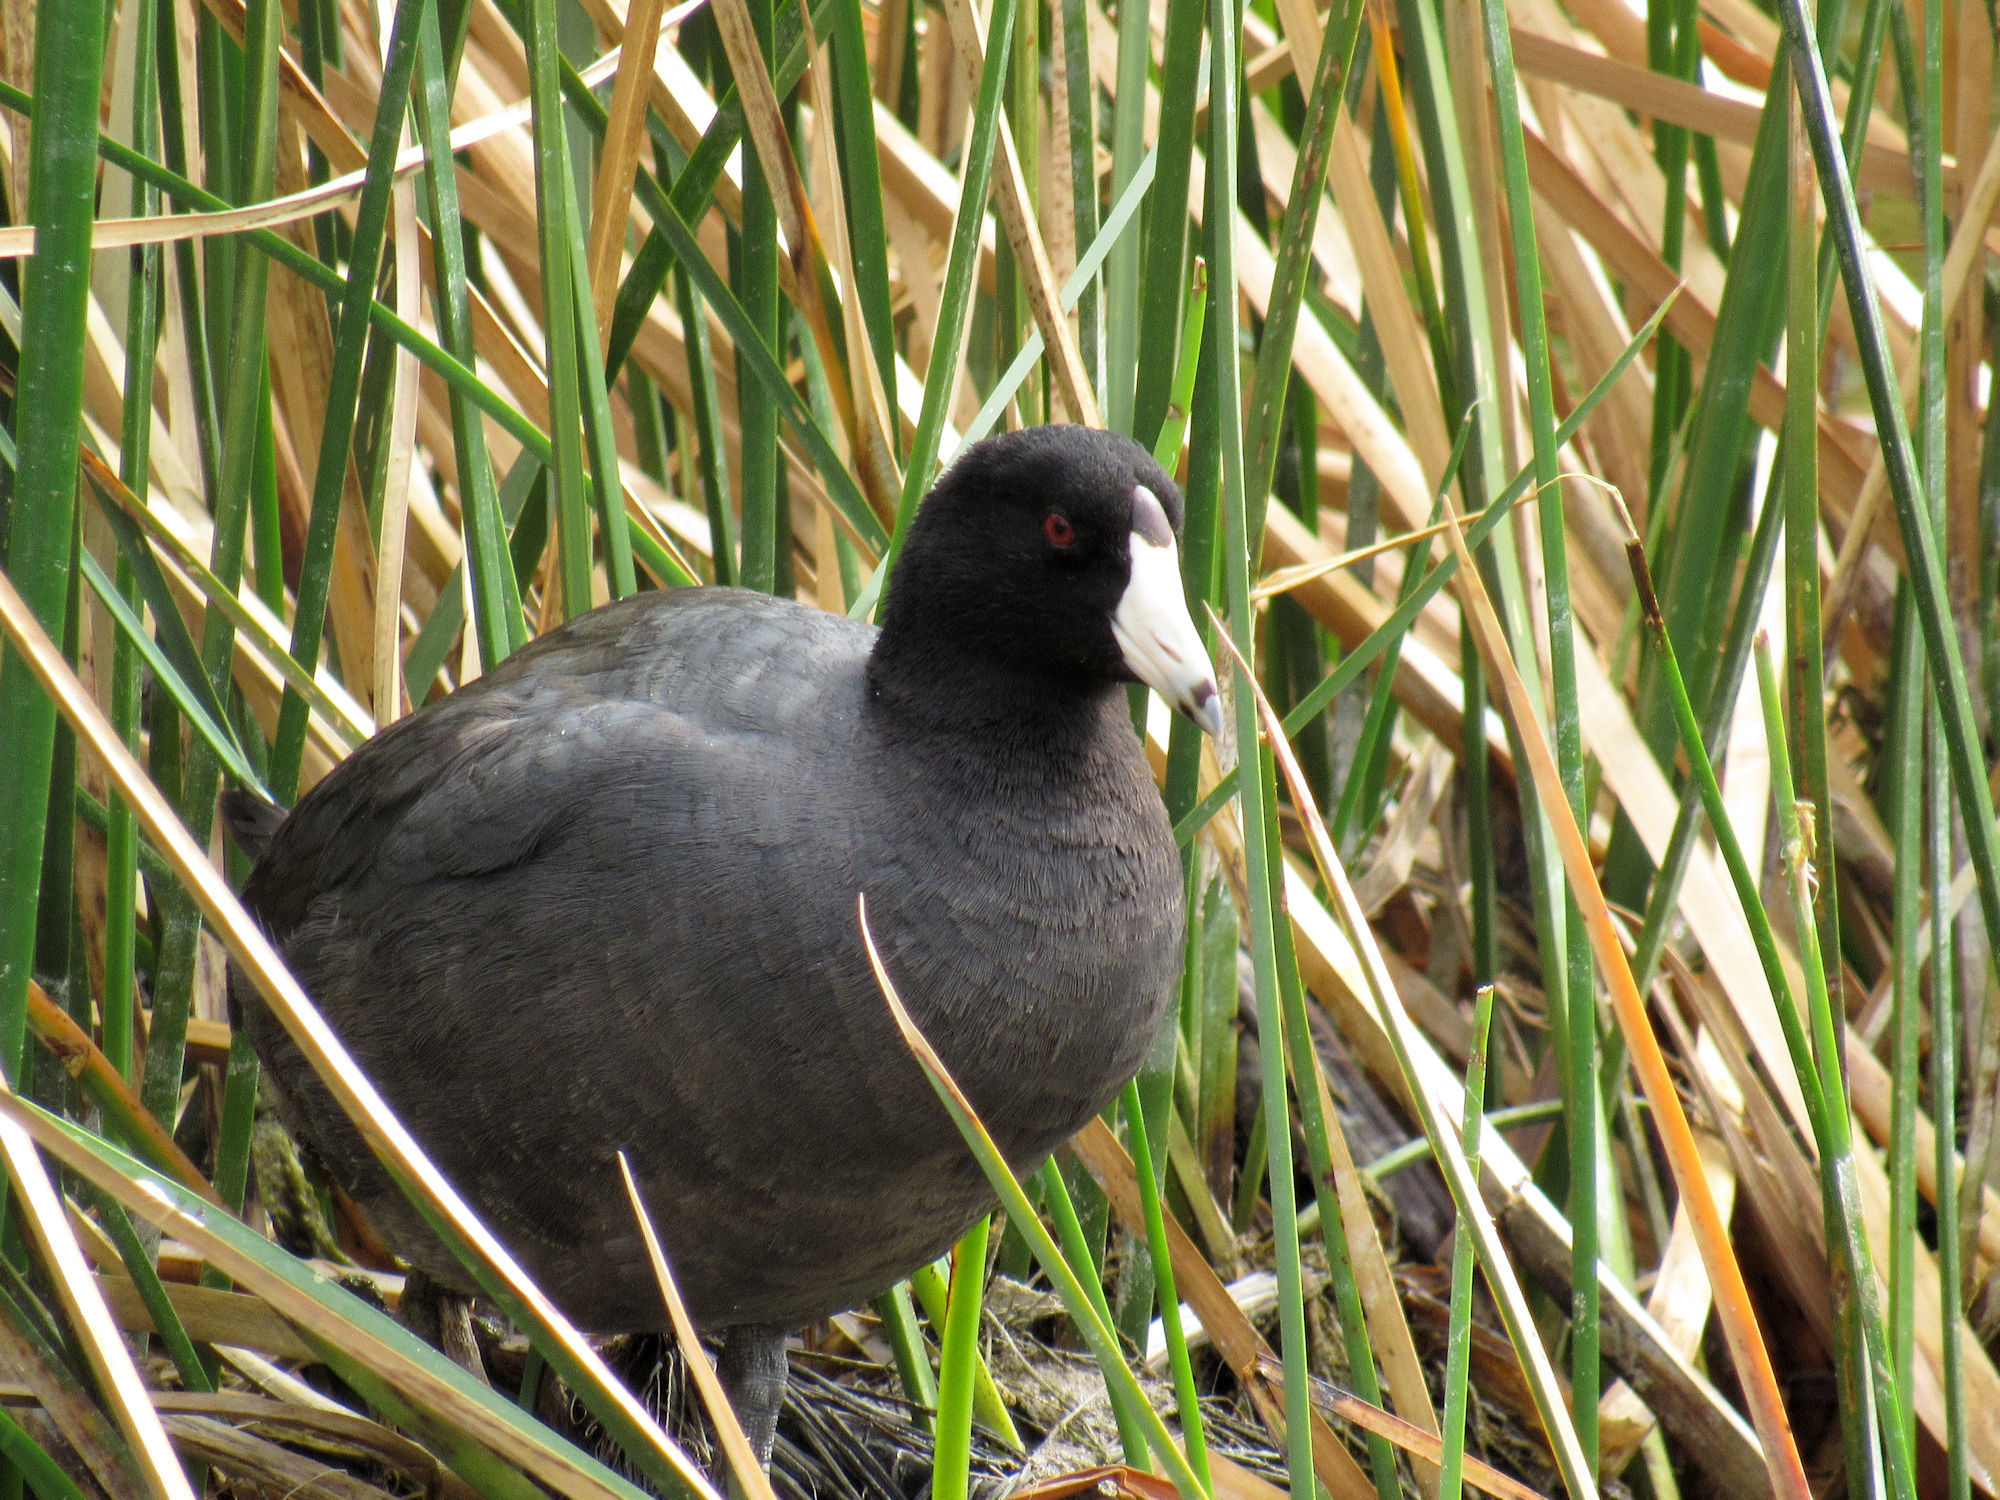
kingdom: Animalia
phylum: Chordata
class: Aves
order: Gruiformes
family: Rallidae
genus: Fulica
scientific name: Fulica americana
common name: American coot
